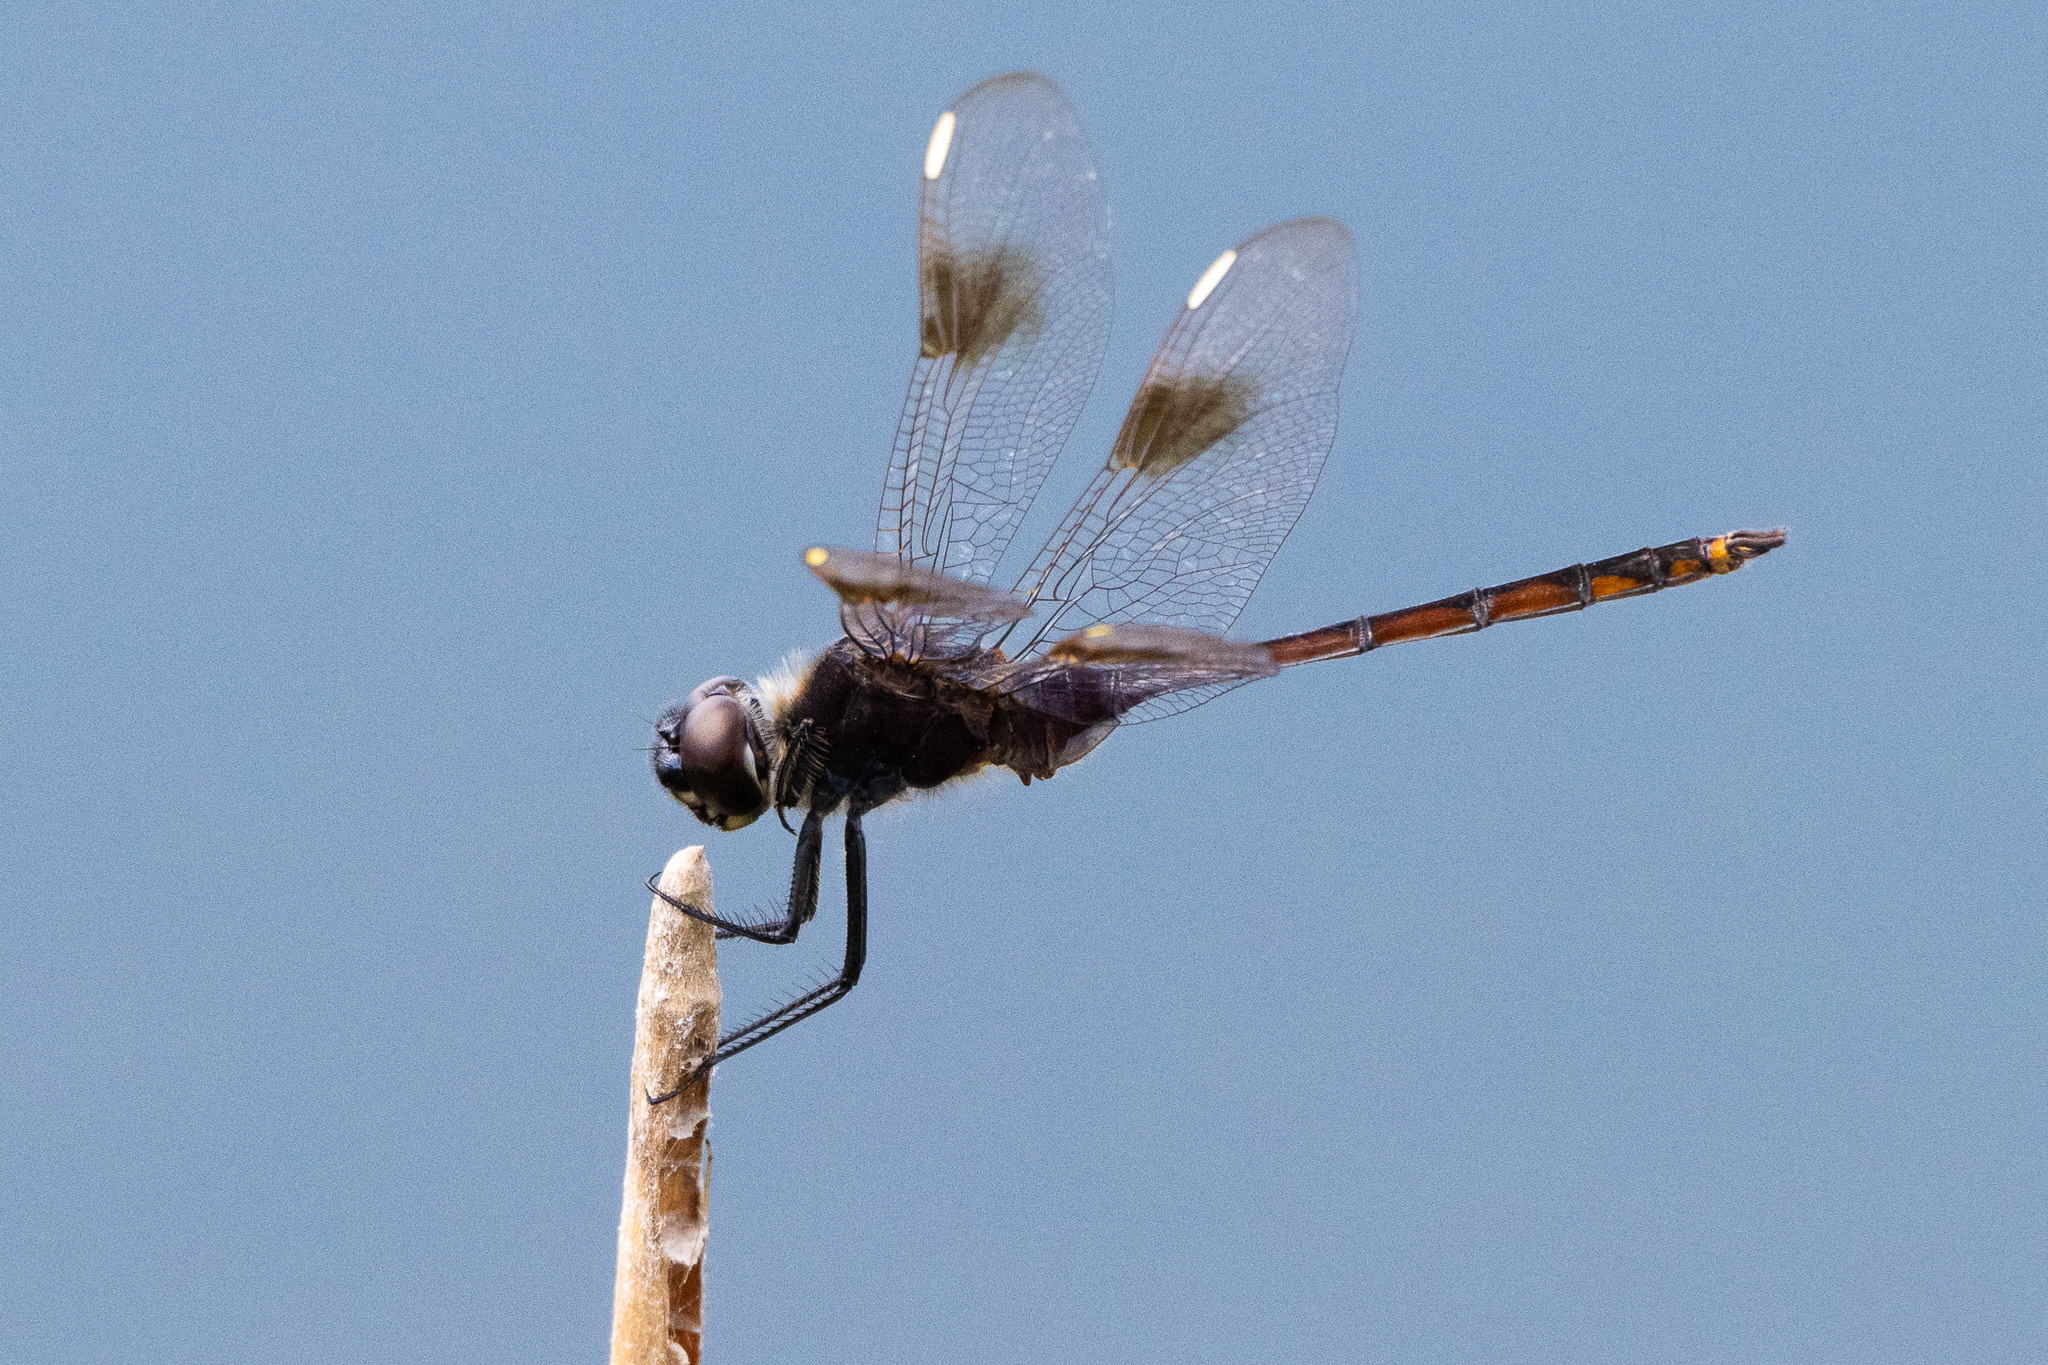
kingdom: Animalia
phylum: Arthropoda
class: Insecta
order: Odonata
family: Libellulidae
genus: Brachymesia
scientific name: Brachymesia gravida
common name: Four-spotted pennant
